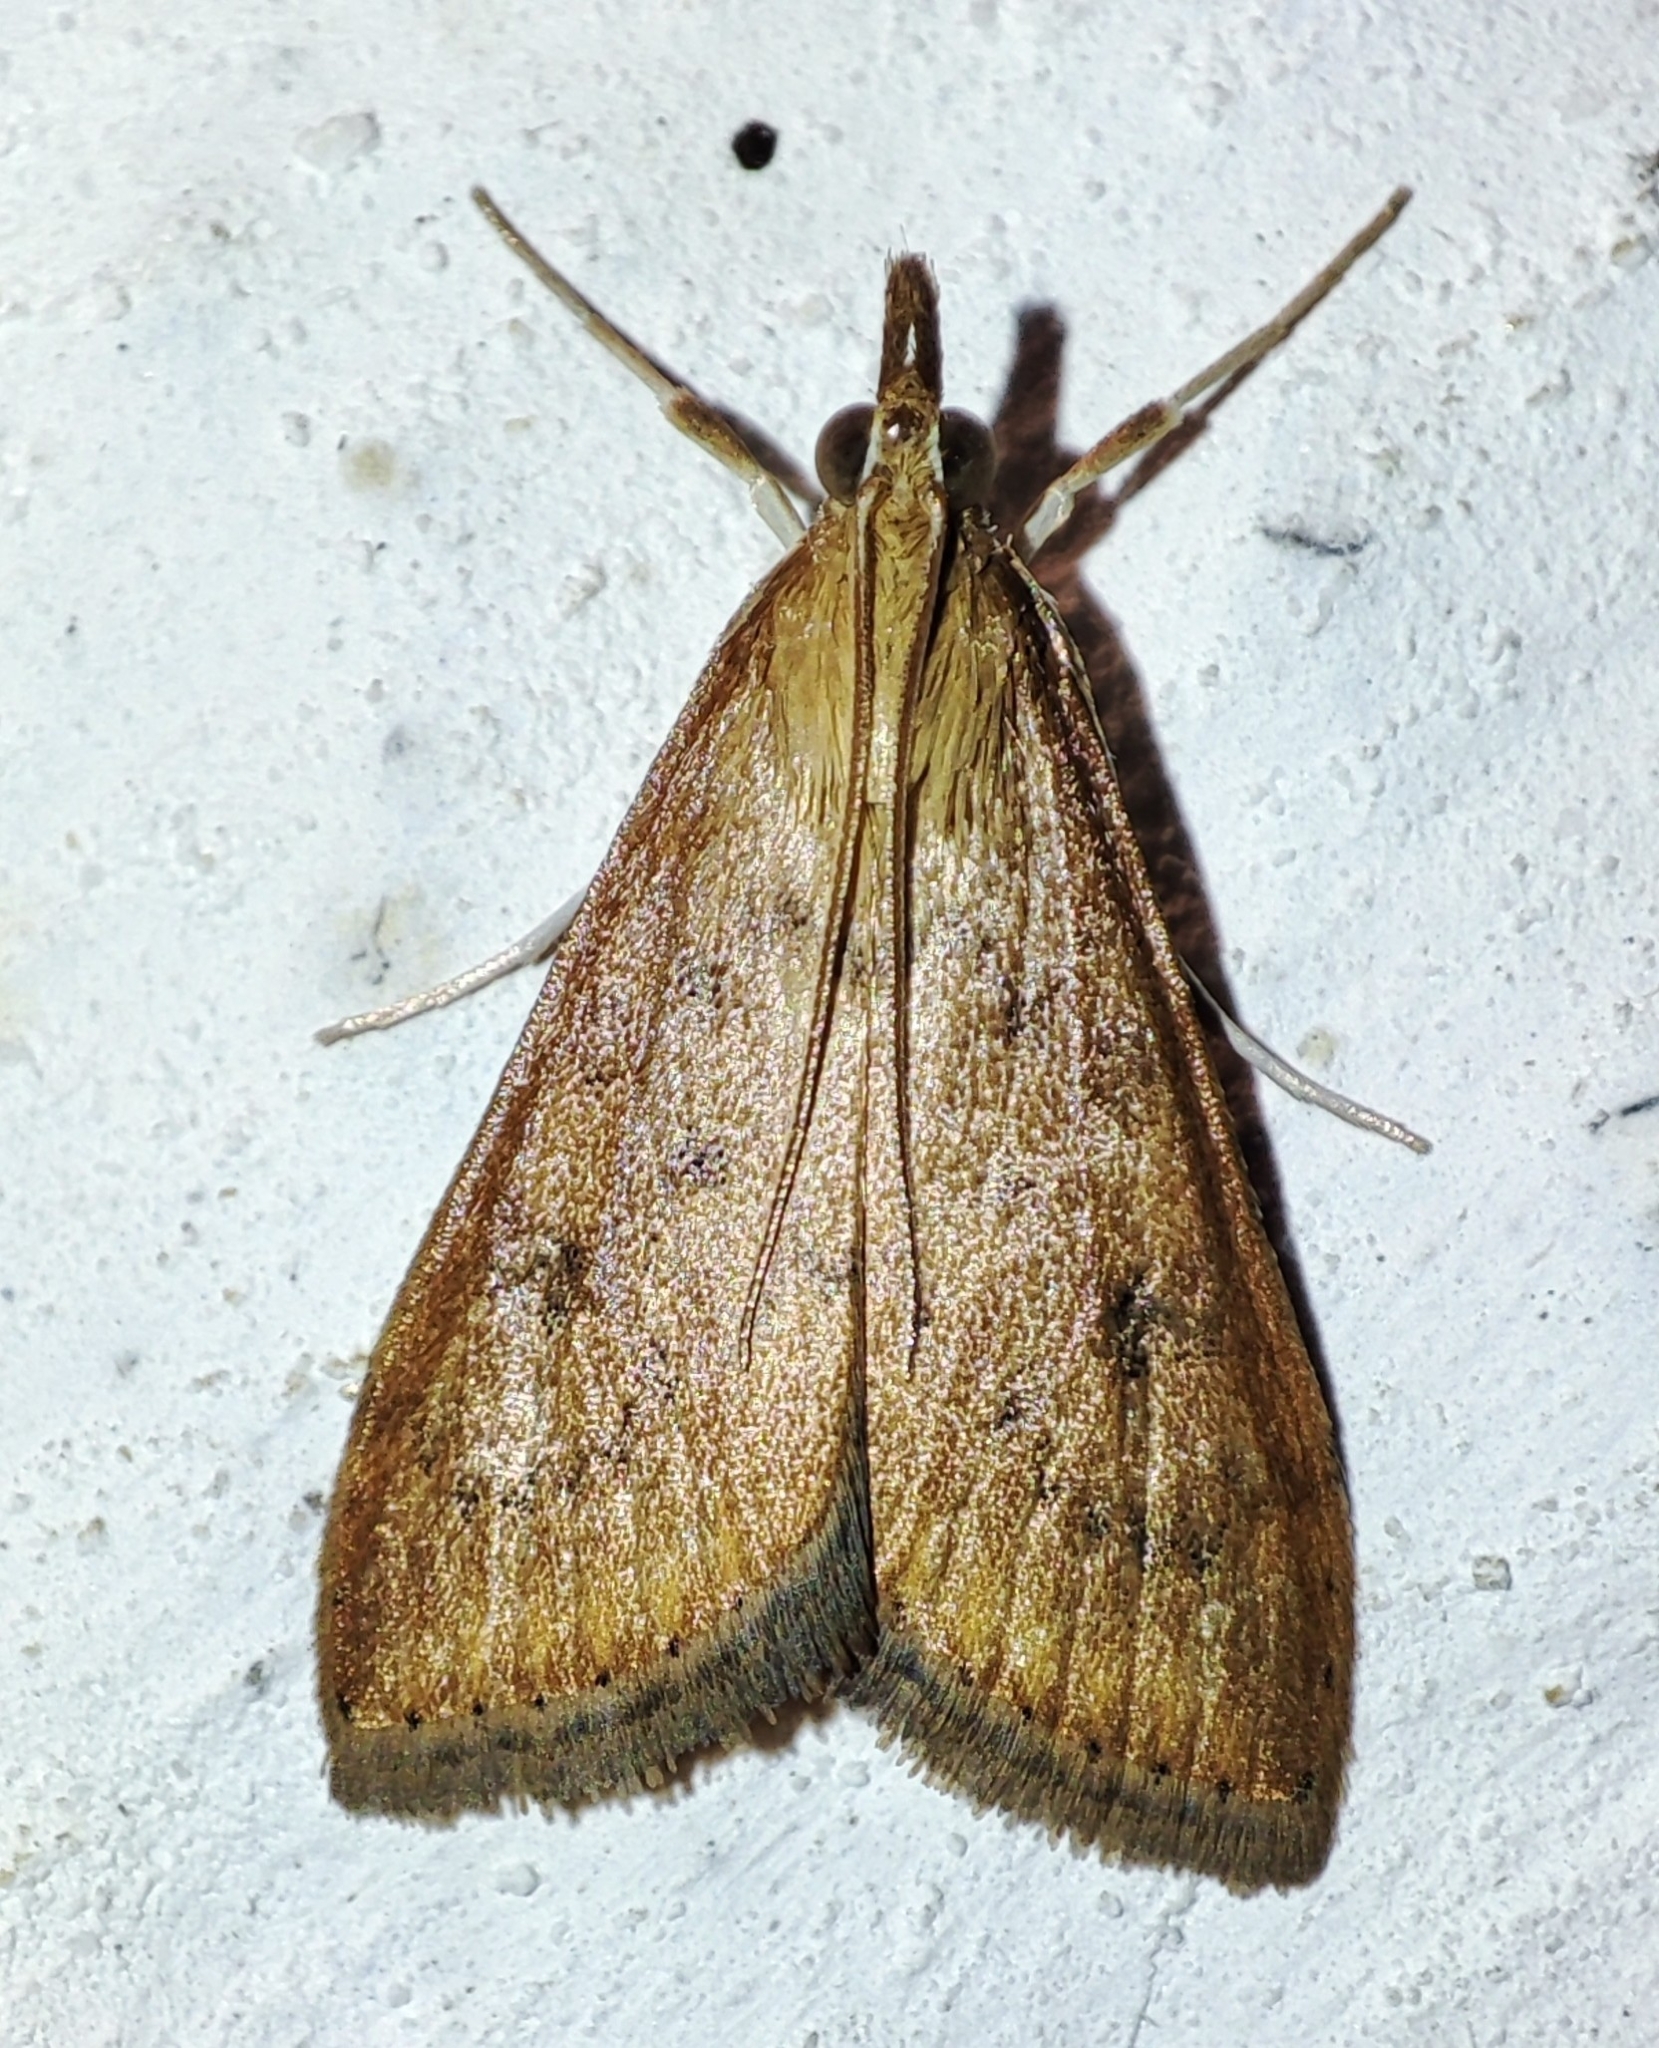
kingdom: Animalia
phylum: Arthropoda
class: Insecta
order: Lepidoptera
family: Crambidae
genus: Udea
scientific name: Udea ferrugalis
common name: Rusty dot
